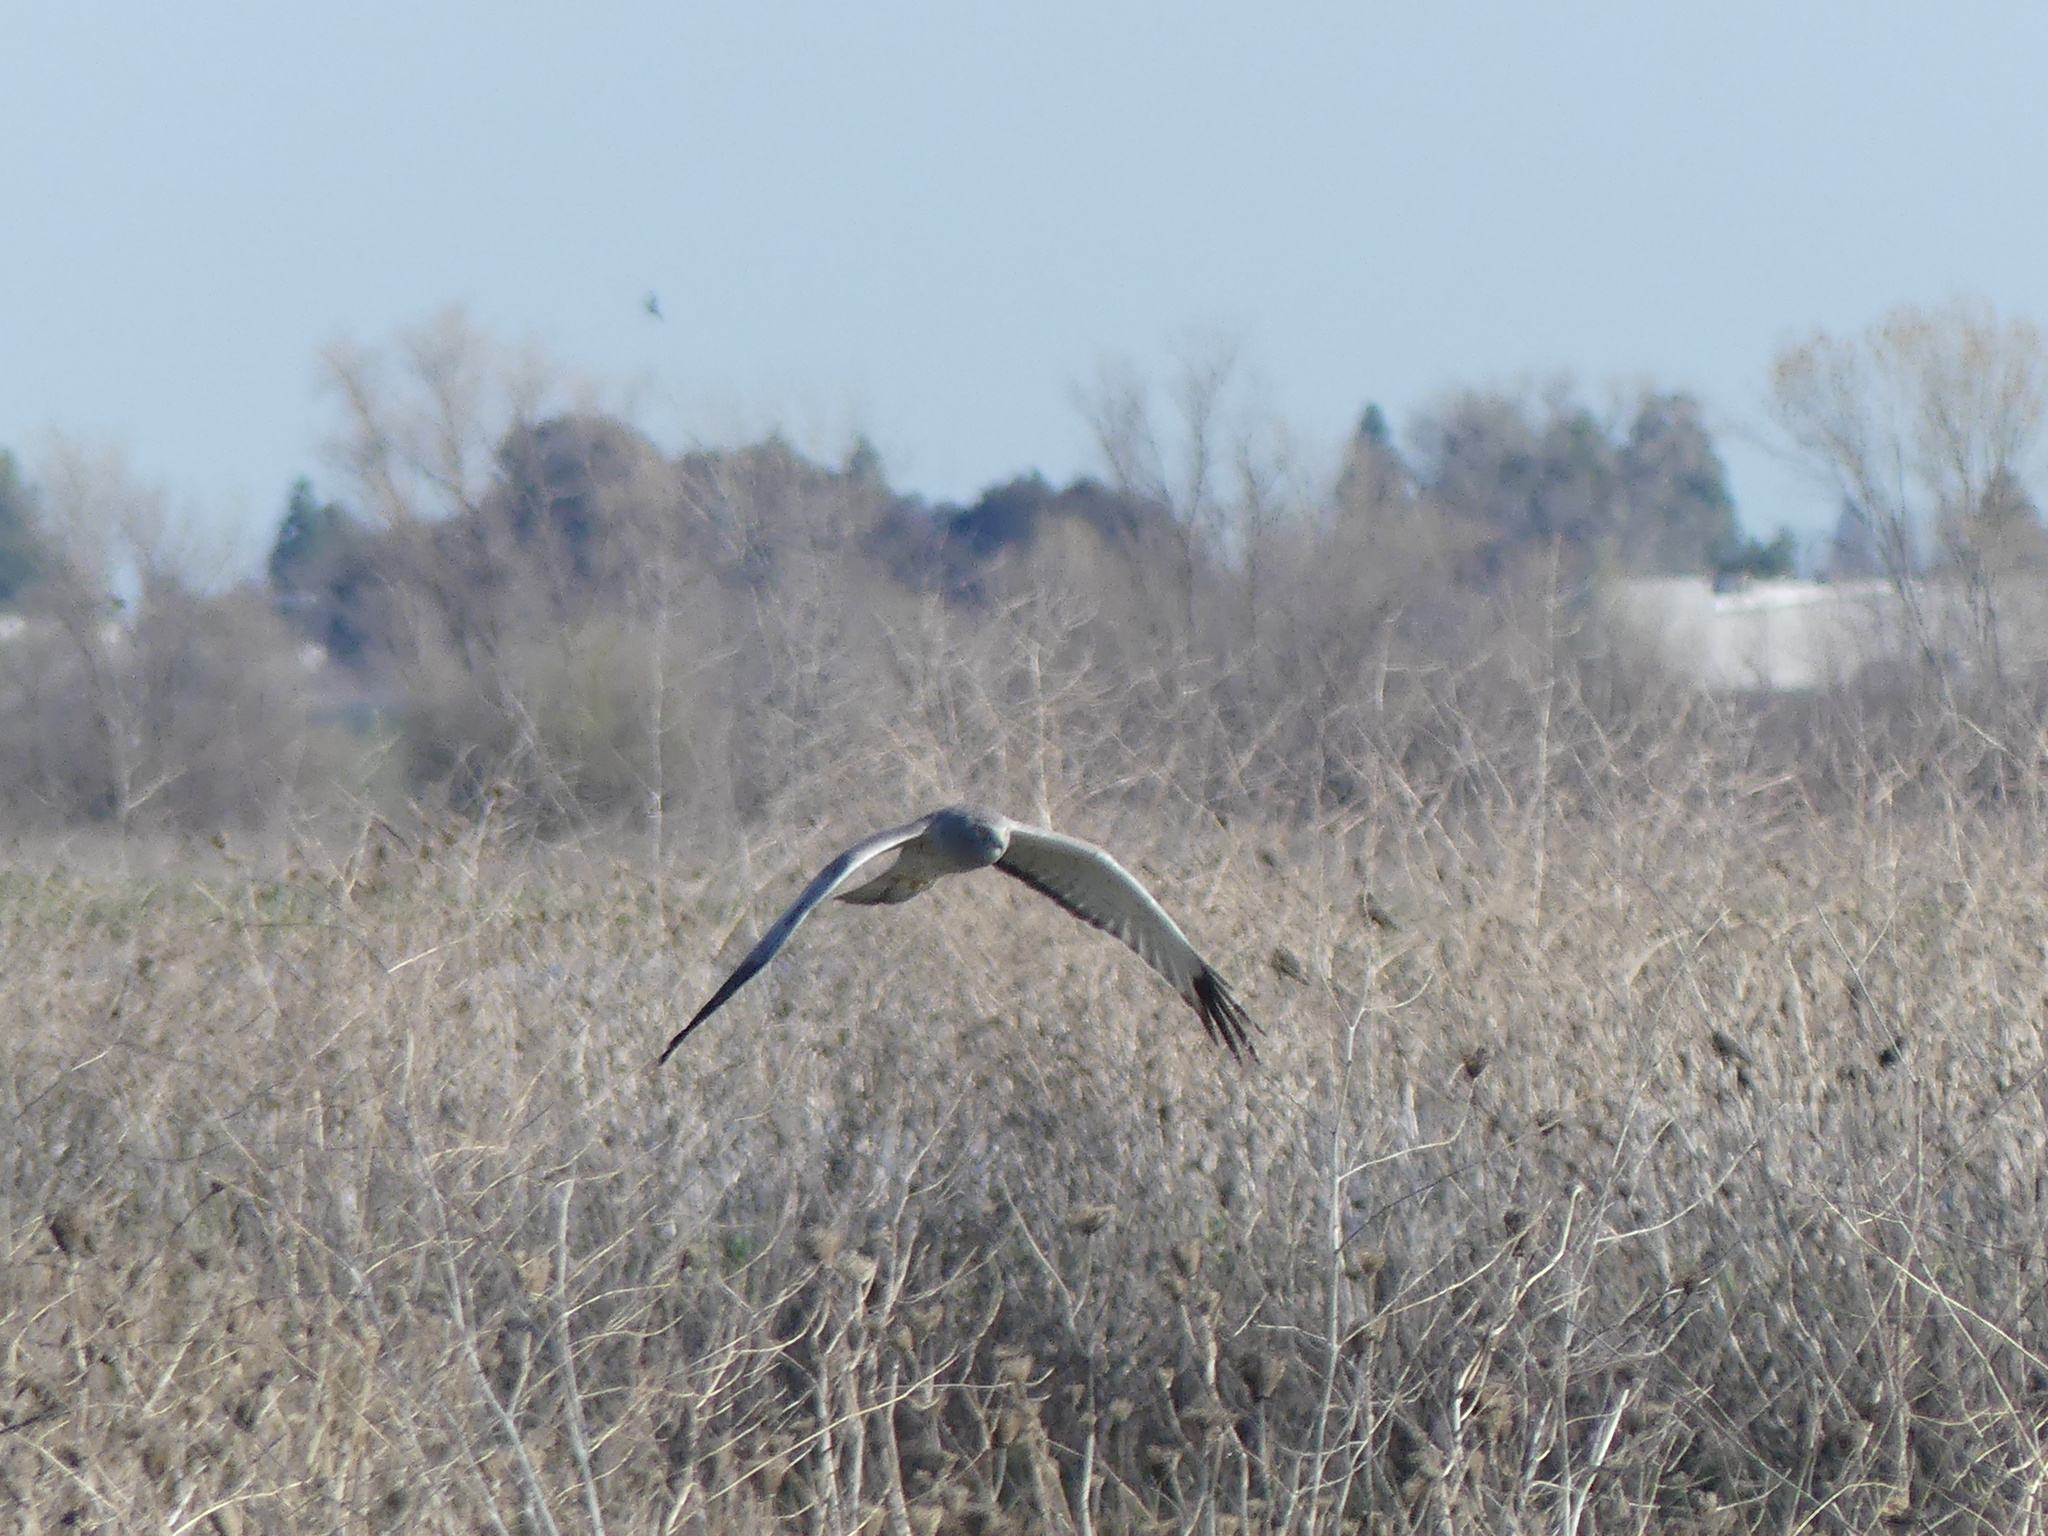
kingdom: Animalia
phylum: Chordata
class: Aves
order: Accipitriformes
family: Accipitridae
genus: Circus
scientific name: Circus cyaneus
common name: Hen harrier
